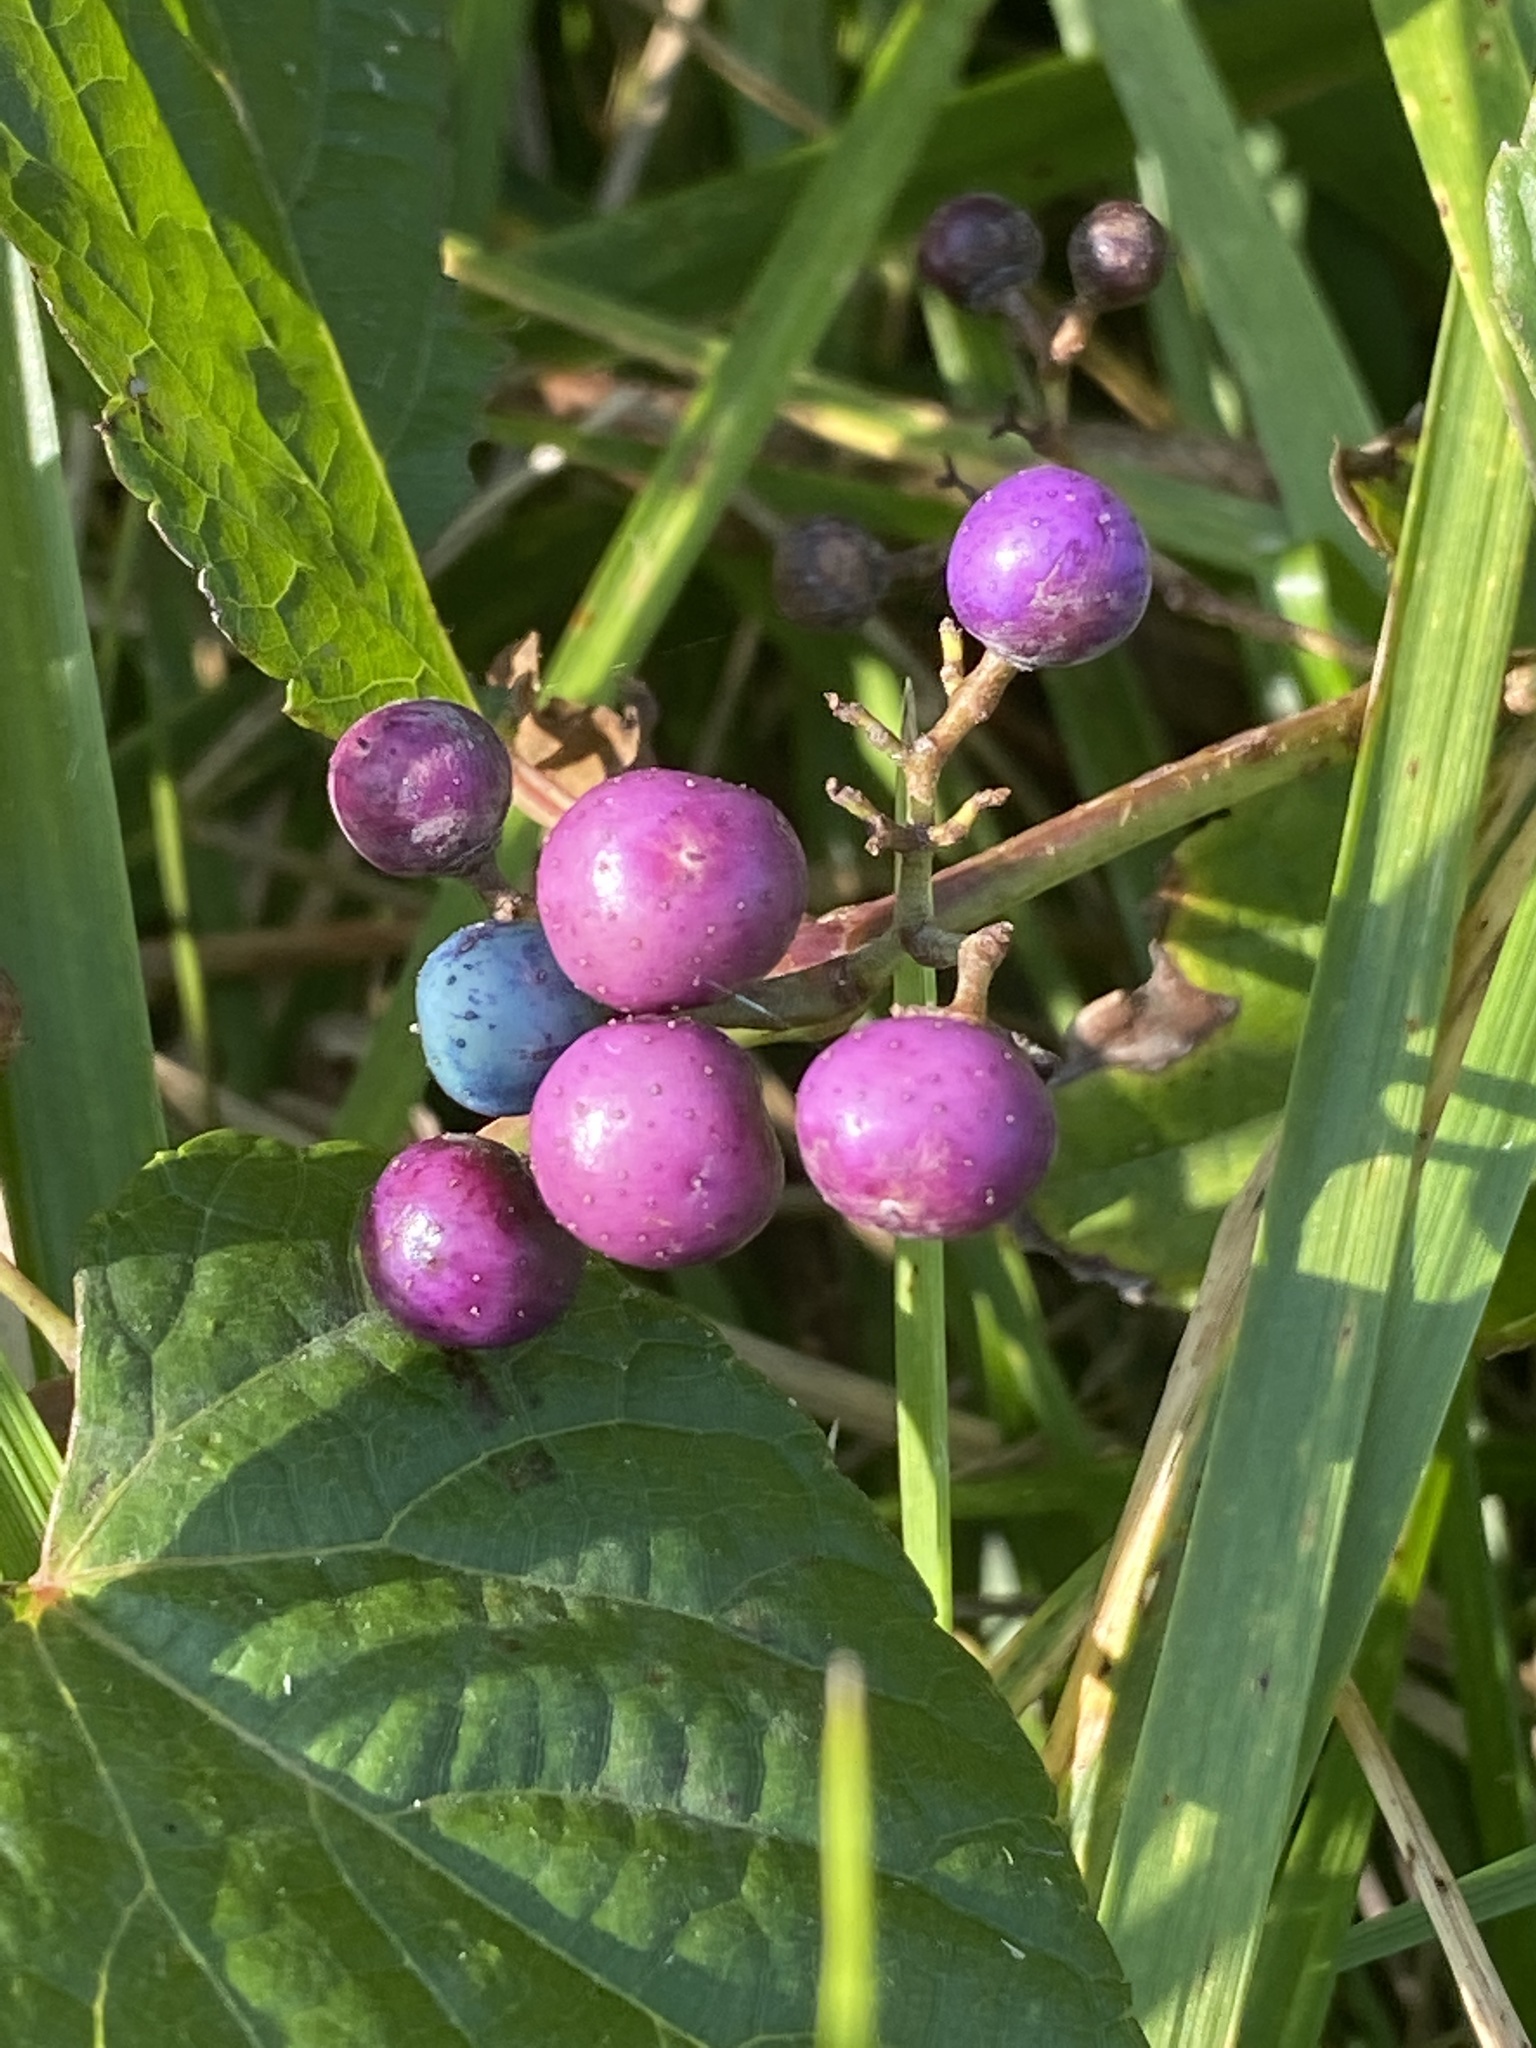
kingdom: Plantae
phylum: Tracheophyta
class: Magnoliopsida
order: Vitales
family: Vitaceae
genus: Ampelopsis
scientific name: Ampelopsis glandulosa
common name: Amur peppervine
